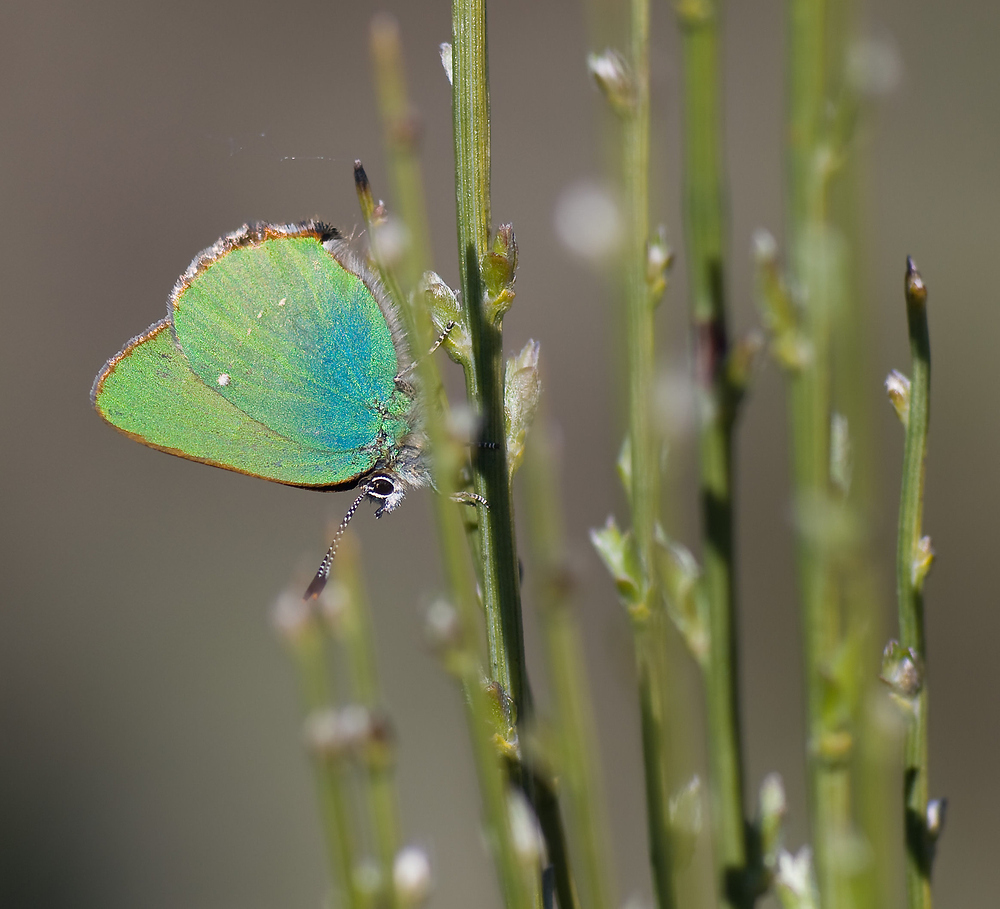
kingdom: Animalia
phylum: Arthropoda
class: Insecta
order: Lepidoptera
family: Lycaenidae
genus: Callophrys
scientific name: Callophrys rubi
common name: Green hairstreak
